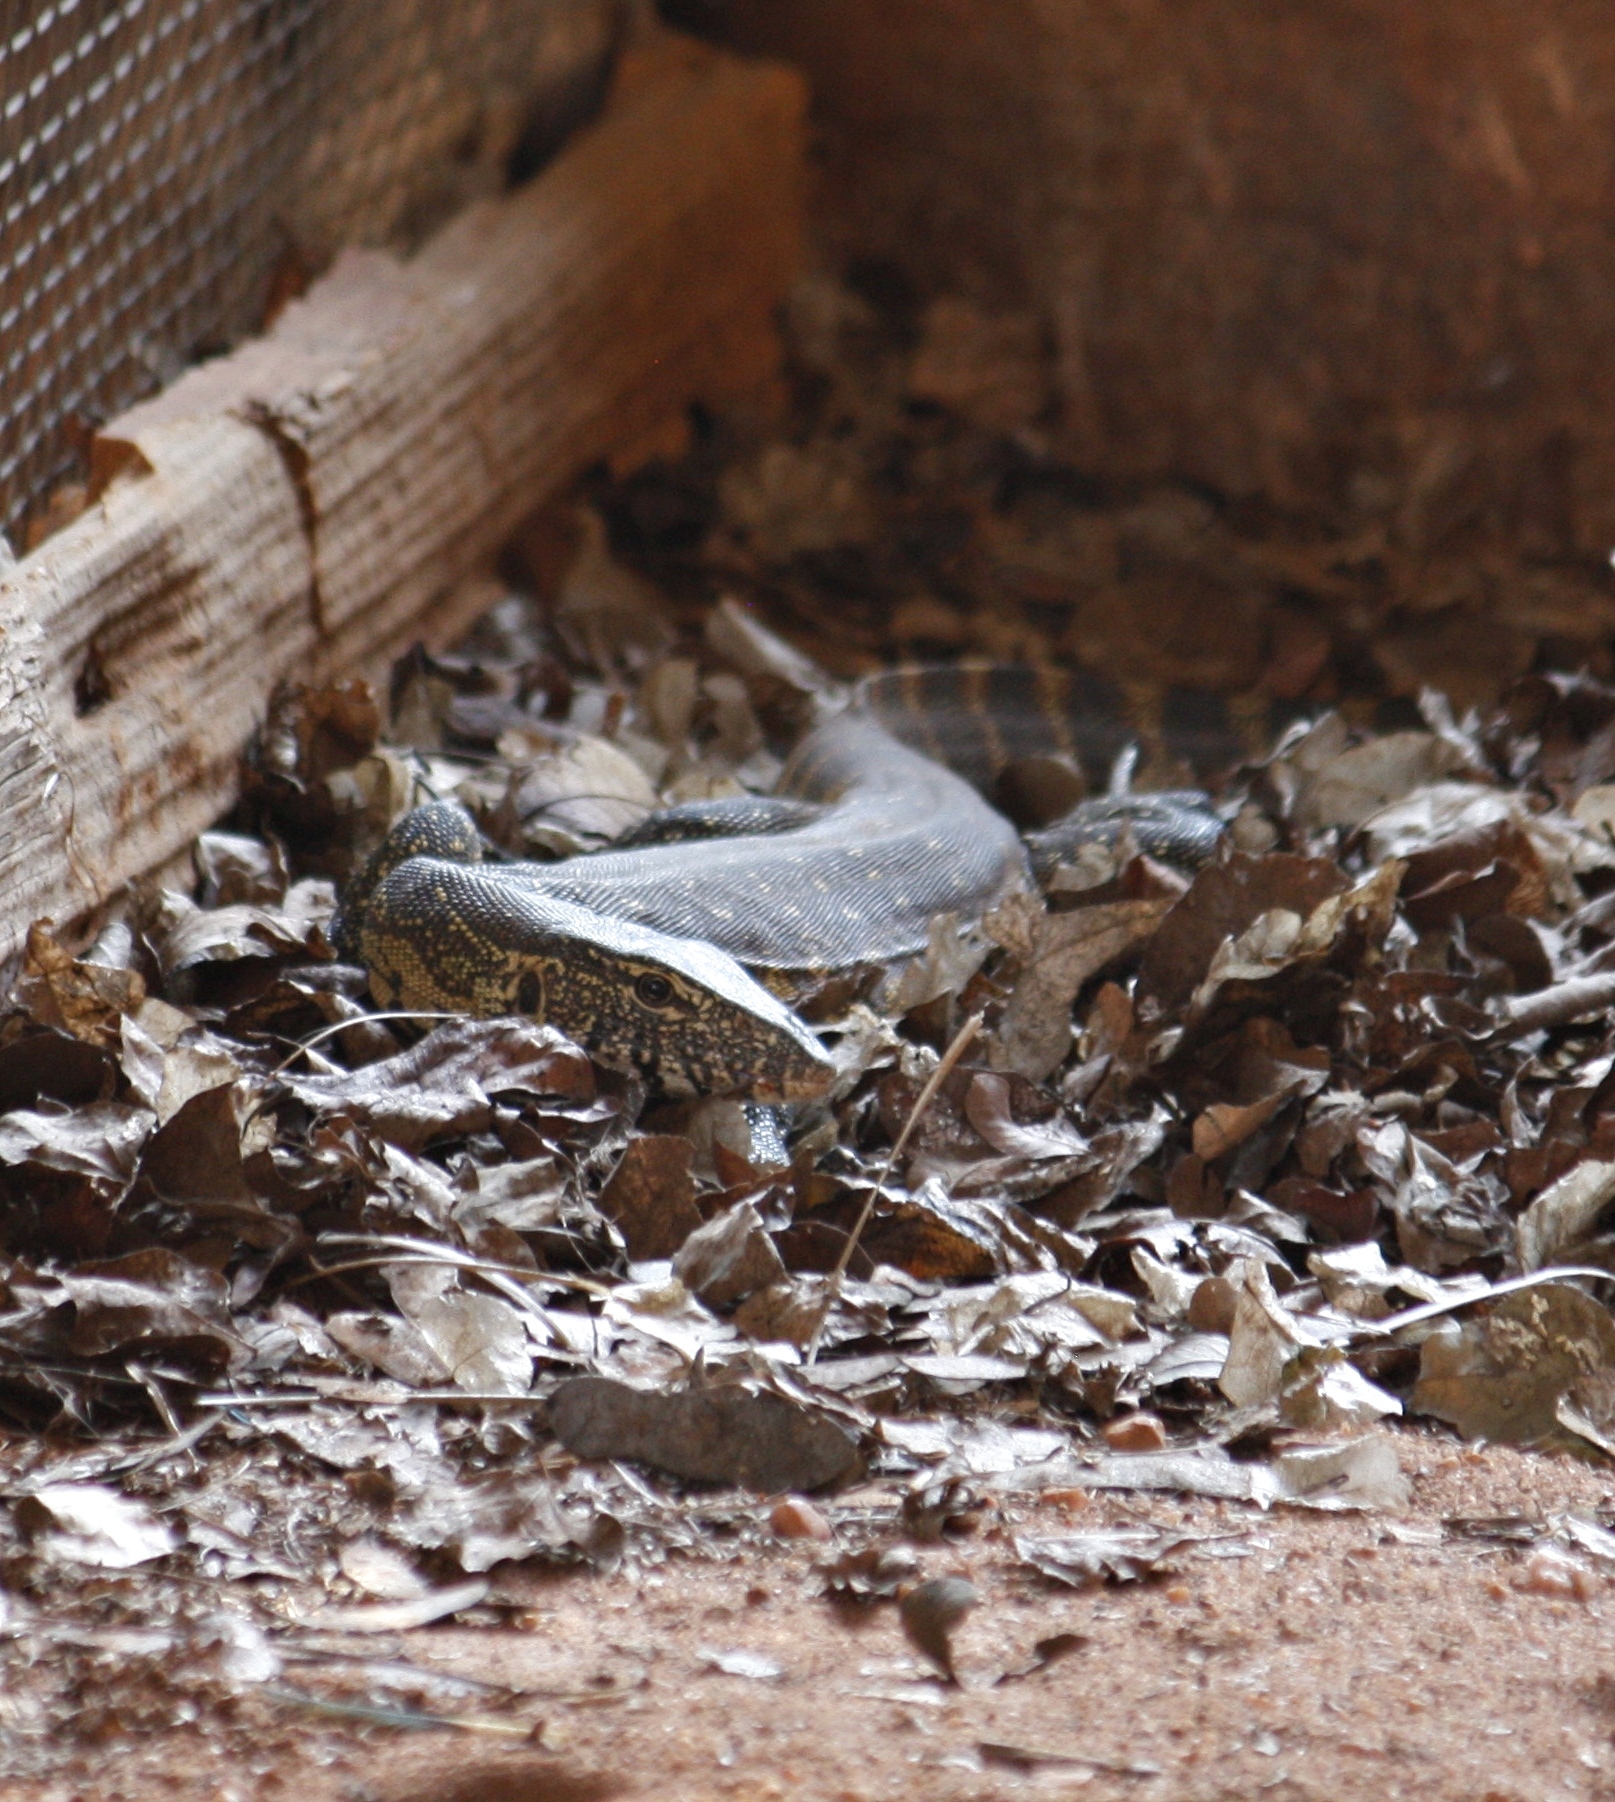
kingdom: Animalia
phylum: Chordata
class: Squamata
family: Varanidae
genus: Varanus
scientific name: Varanus niloticus
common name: Nile monitor
